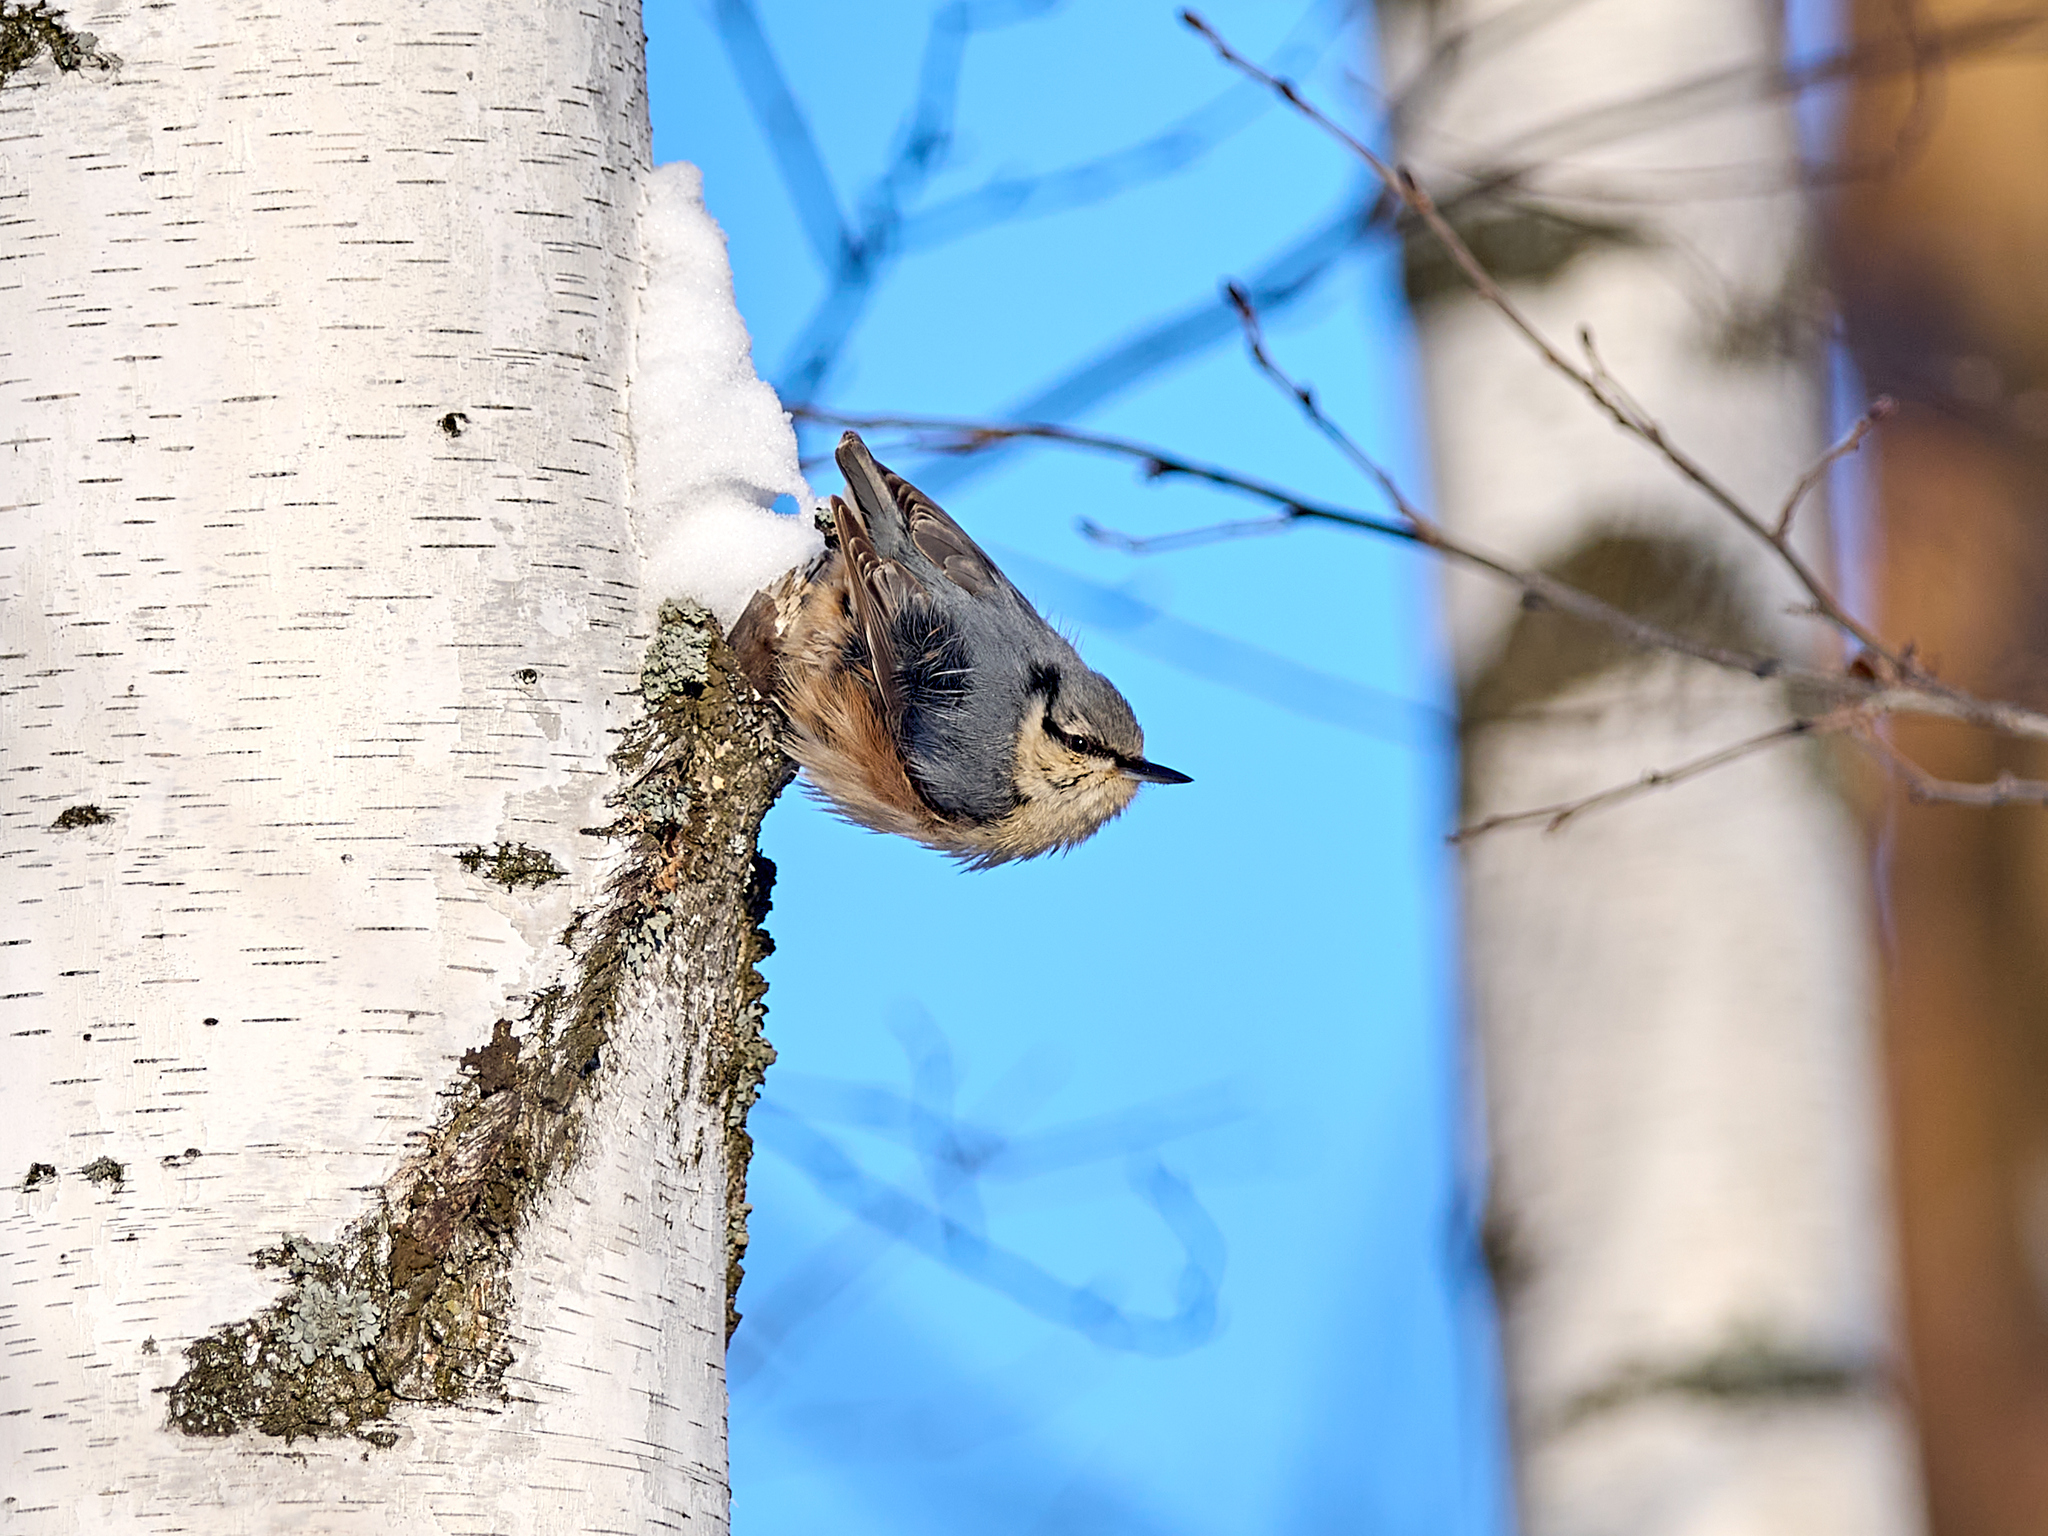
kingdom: Animalia
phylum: Chordata
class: Aves
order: Passeriformes
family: Sittidae
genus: Sitta
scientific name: Sitta europaea
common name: Eurasian nuthatch
